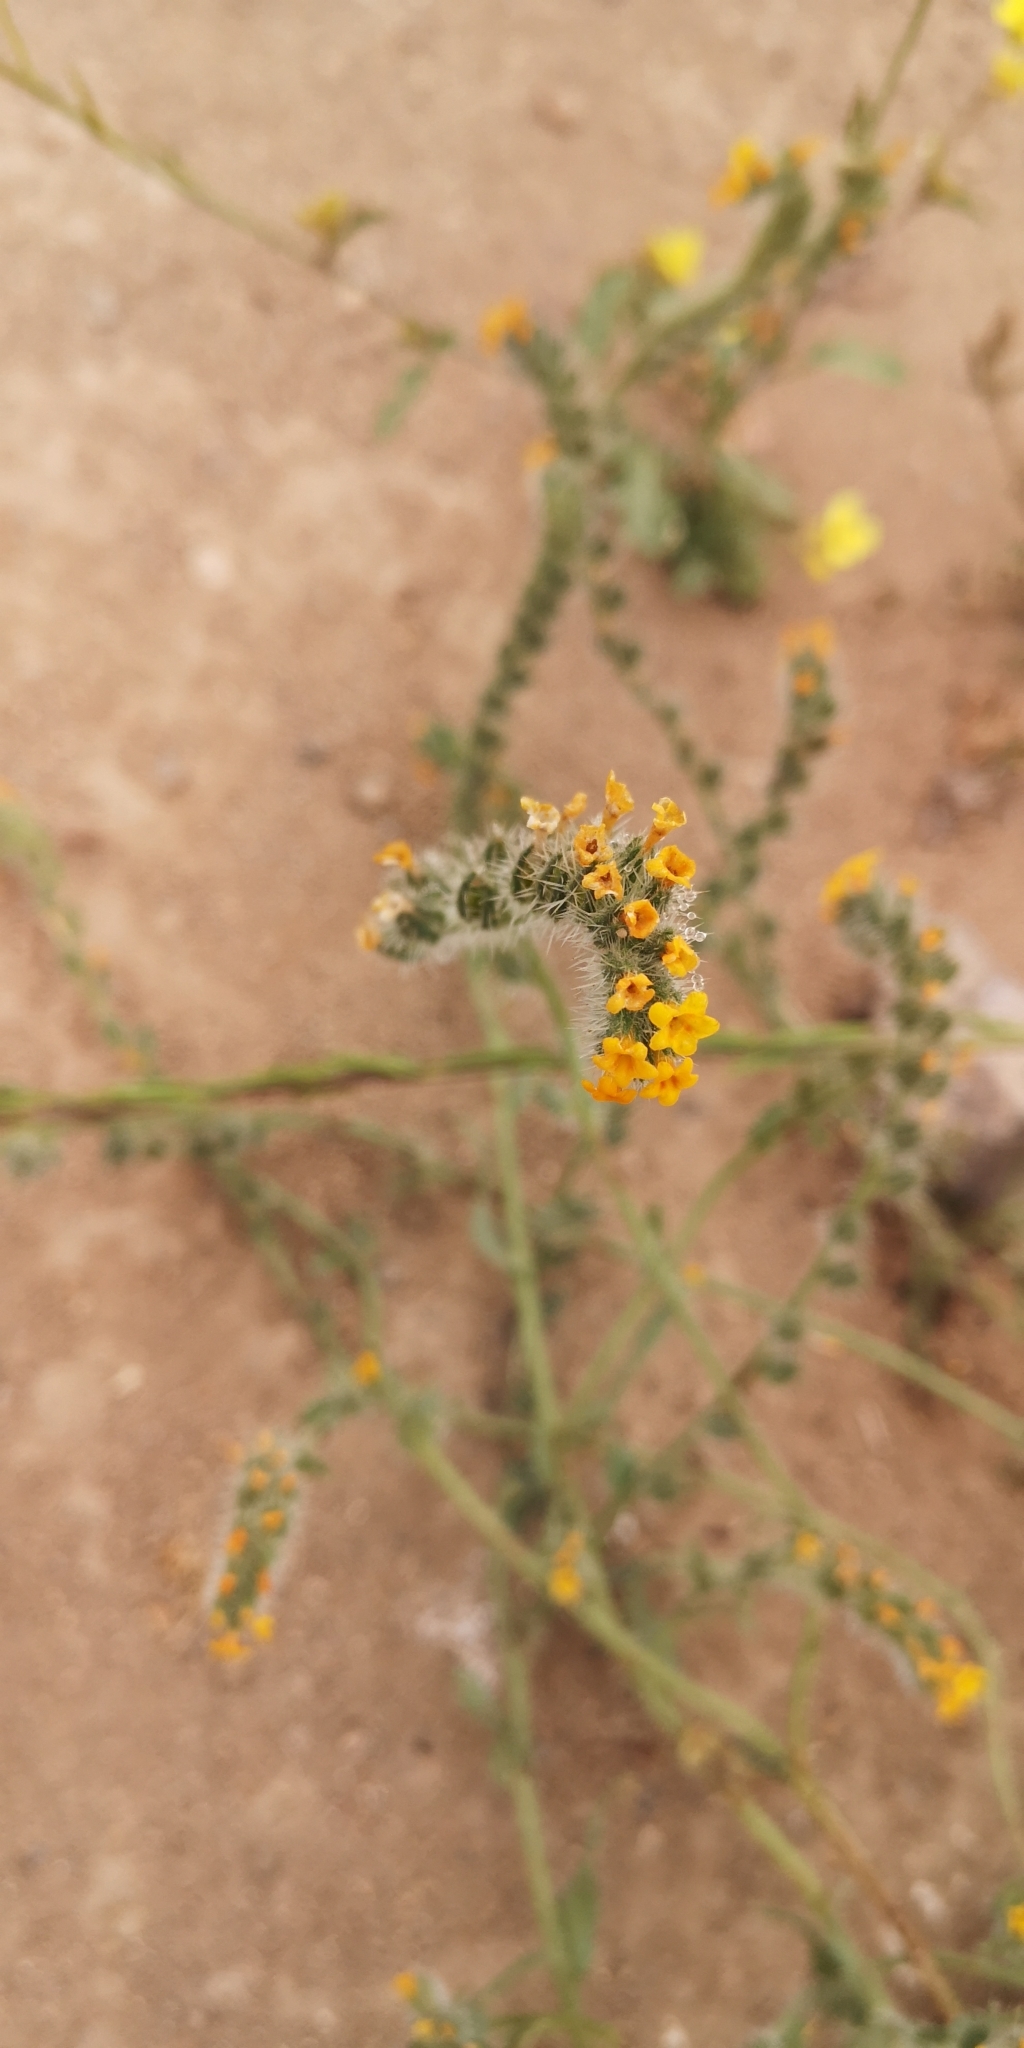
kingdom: Plantae
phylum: Tracheophyta
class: Magnoliopsida
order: Boraginales
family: Boraginaceae
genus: Amsinckia
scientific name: Amsinckia calycina
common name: Hairy fiddleneck
